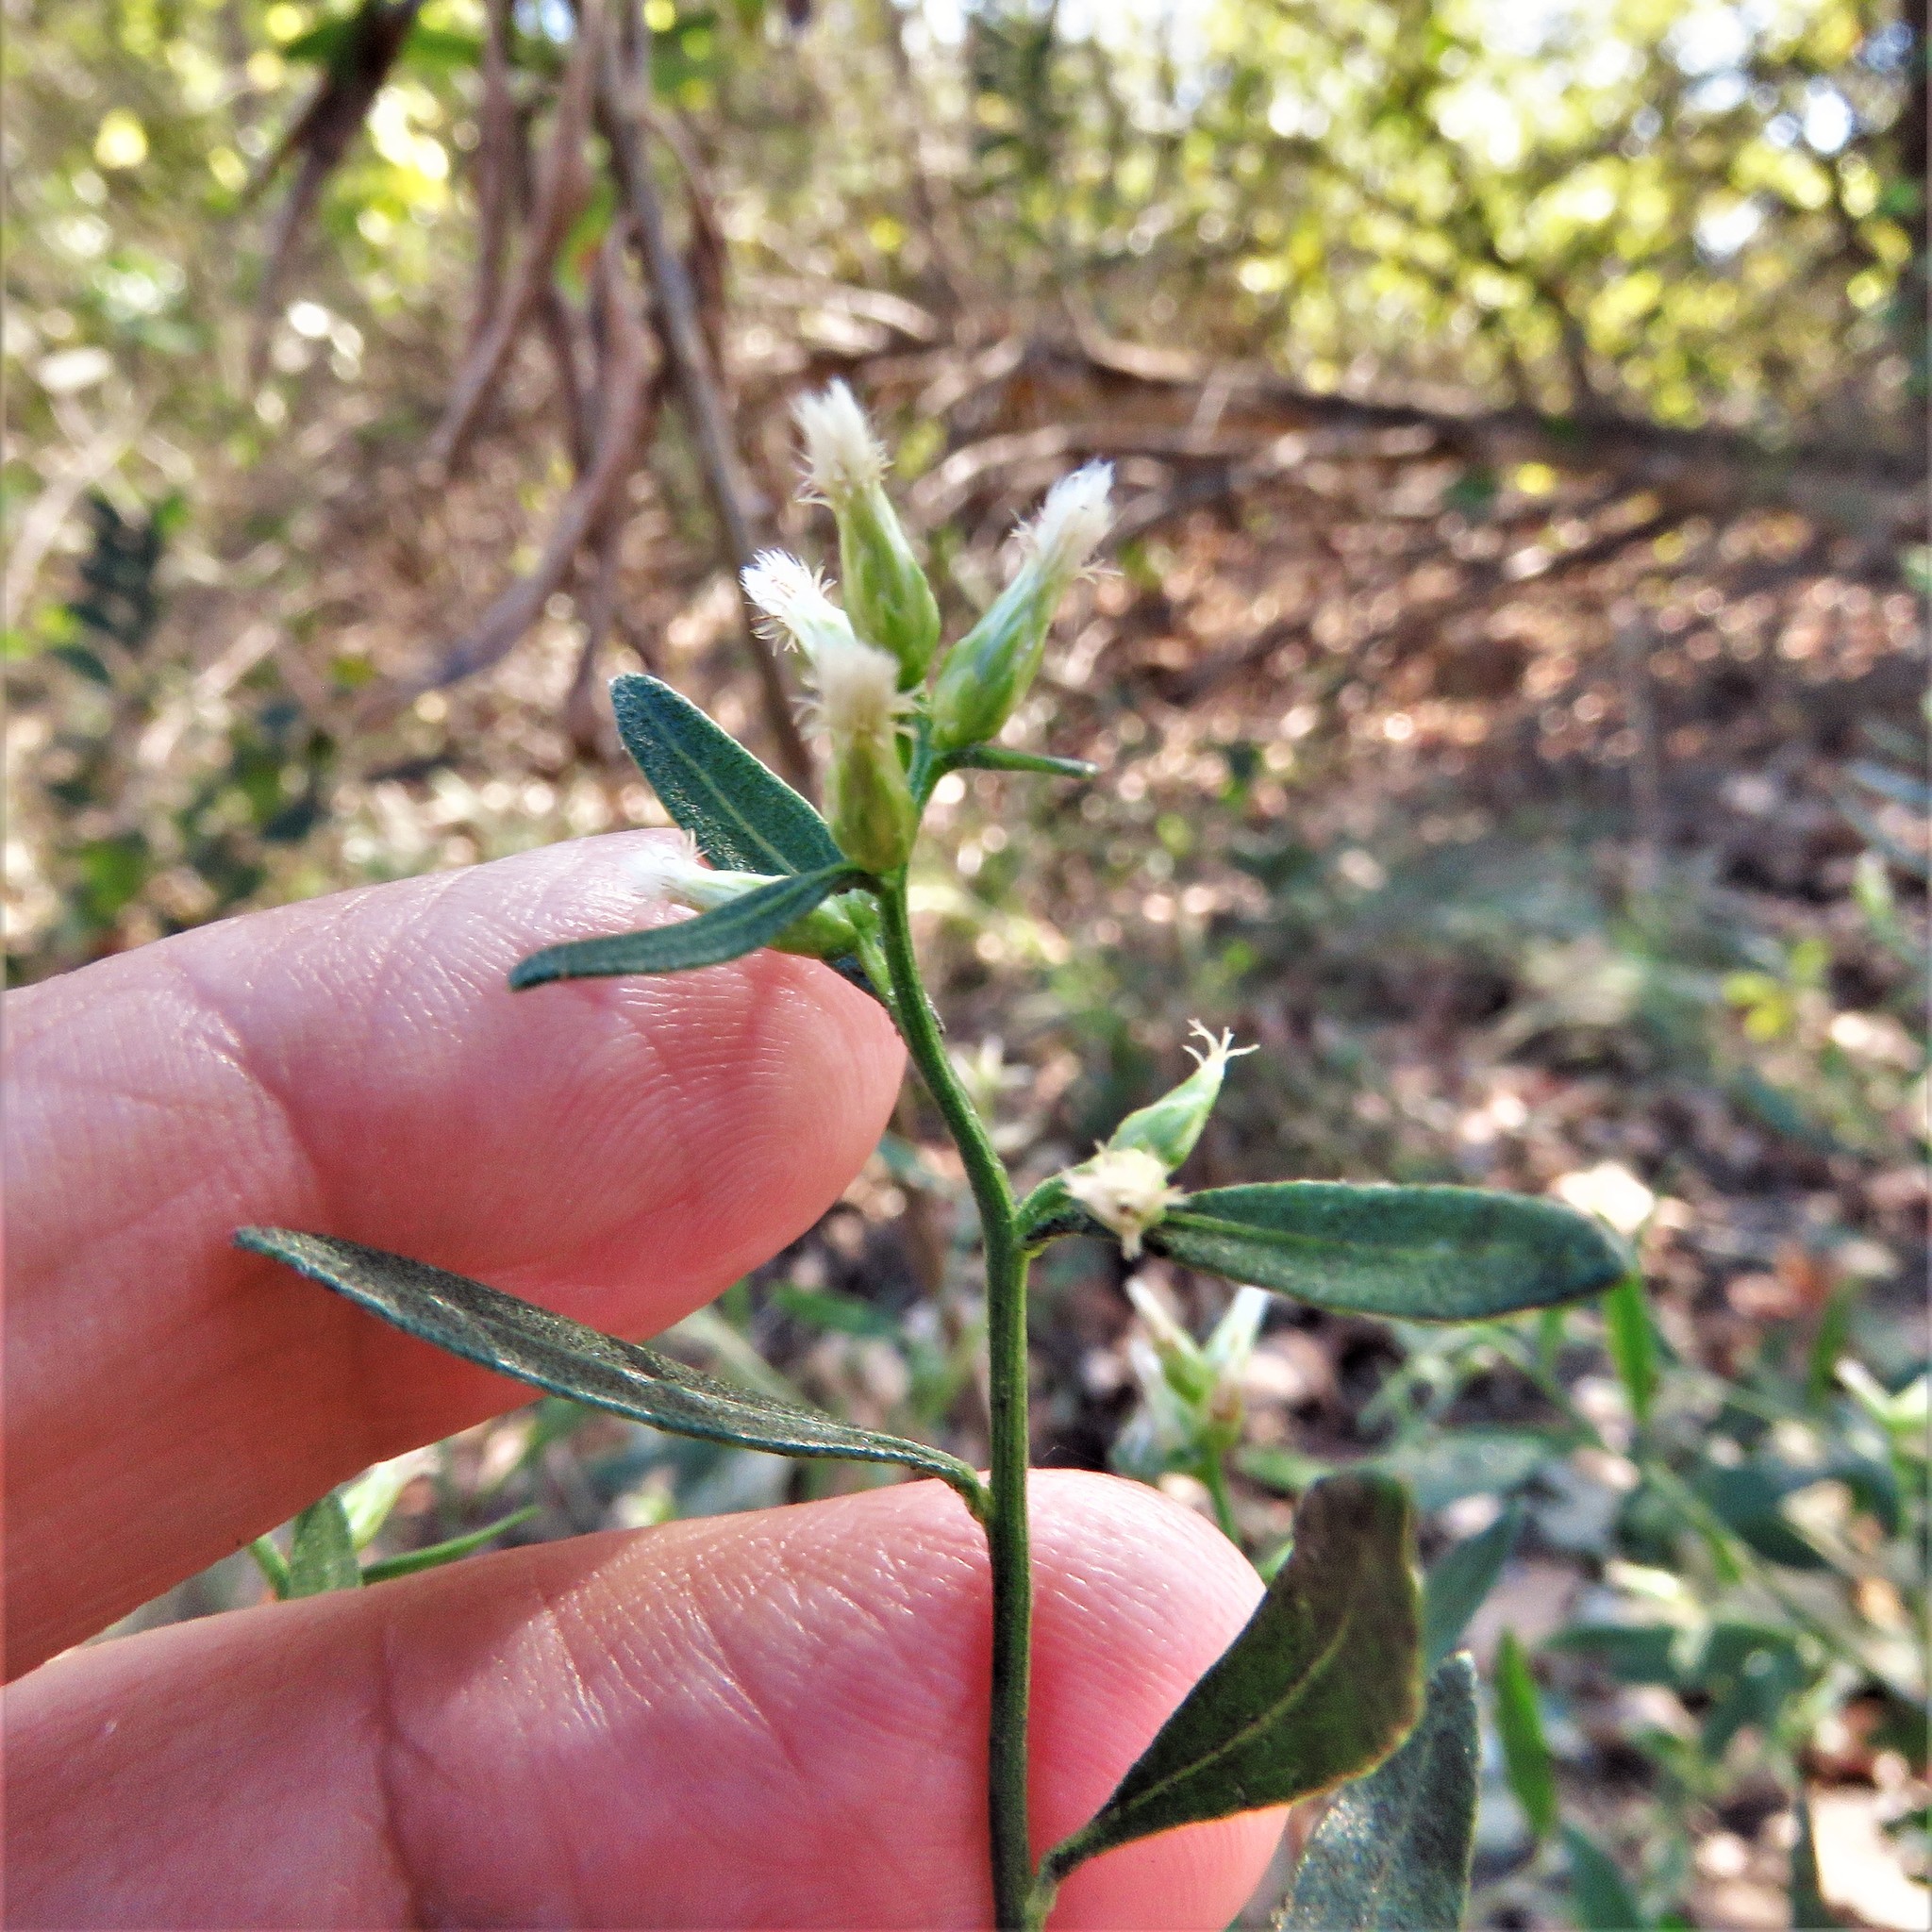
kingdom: Plantae
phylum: Tracheophyta
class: Magnoliopsida
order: Asterales
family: Asteraceae
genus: Baccharis
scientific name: Baccharis halimifolia
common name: Eastern baccharis
